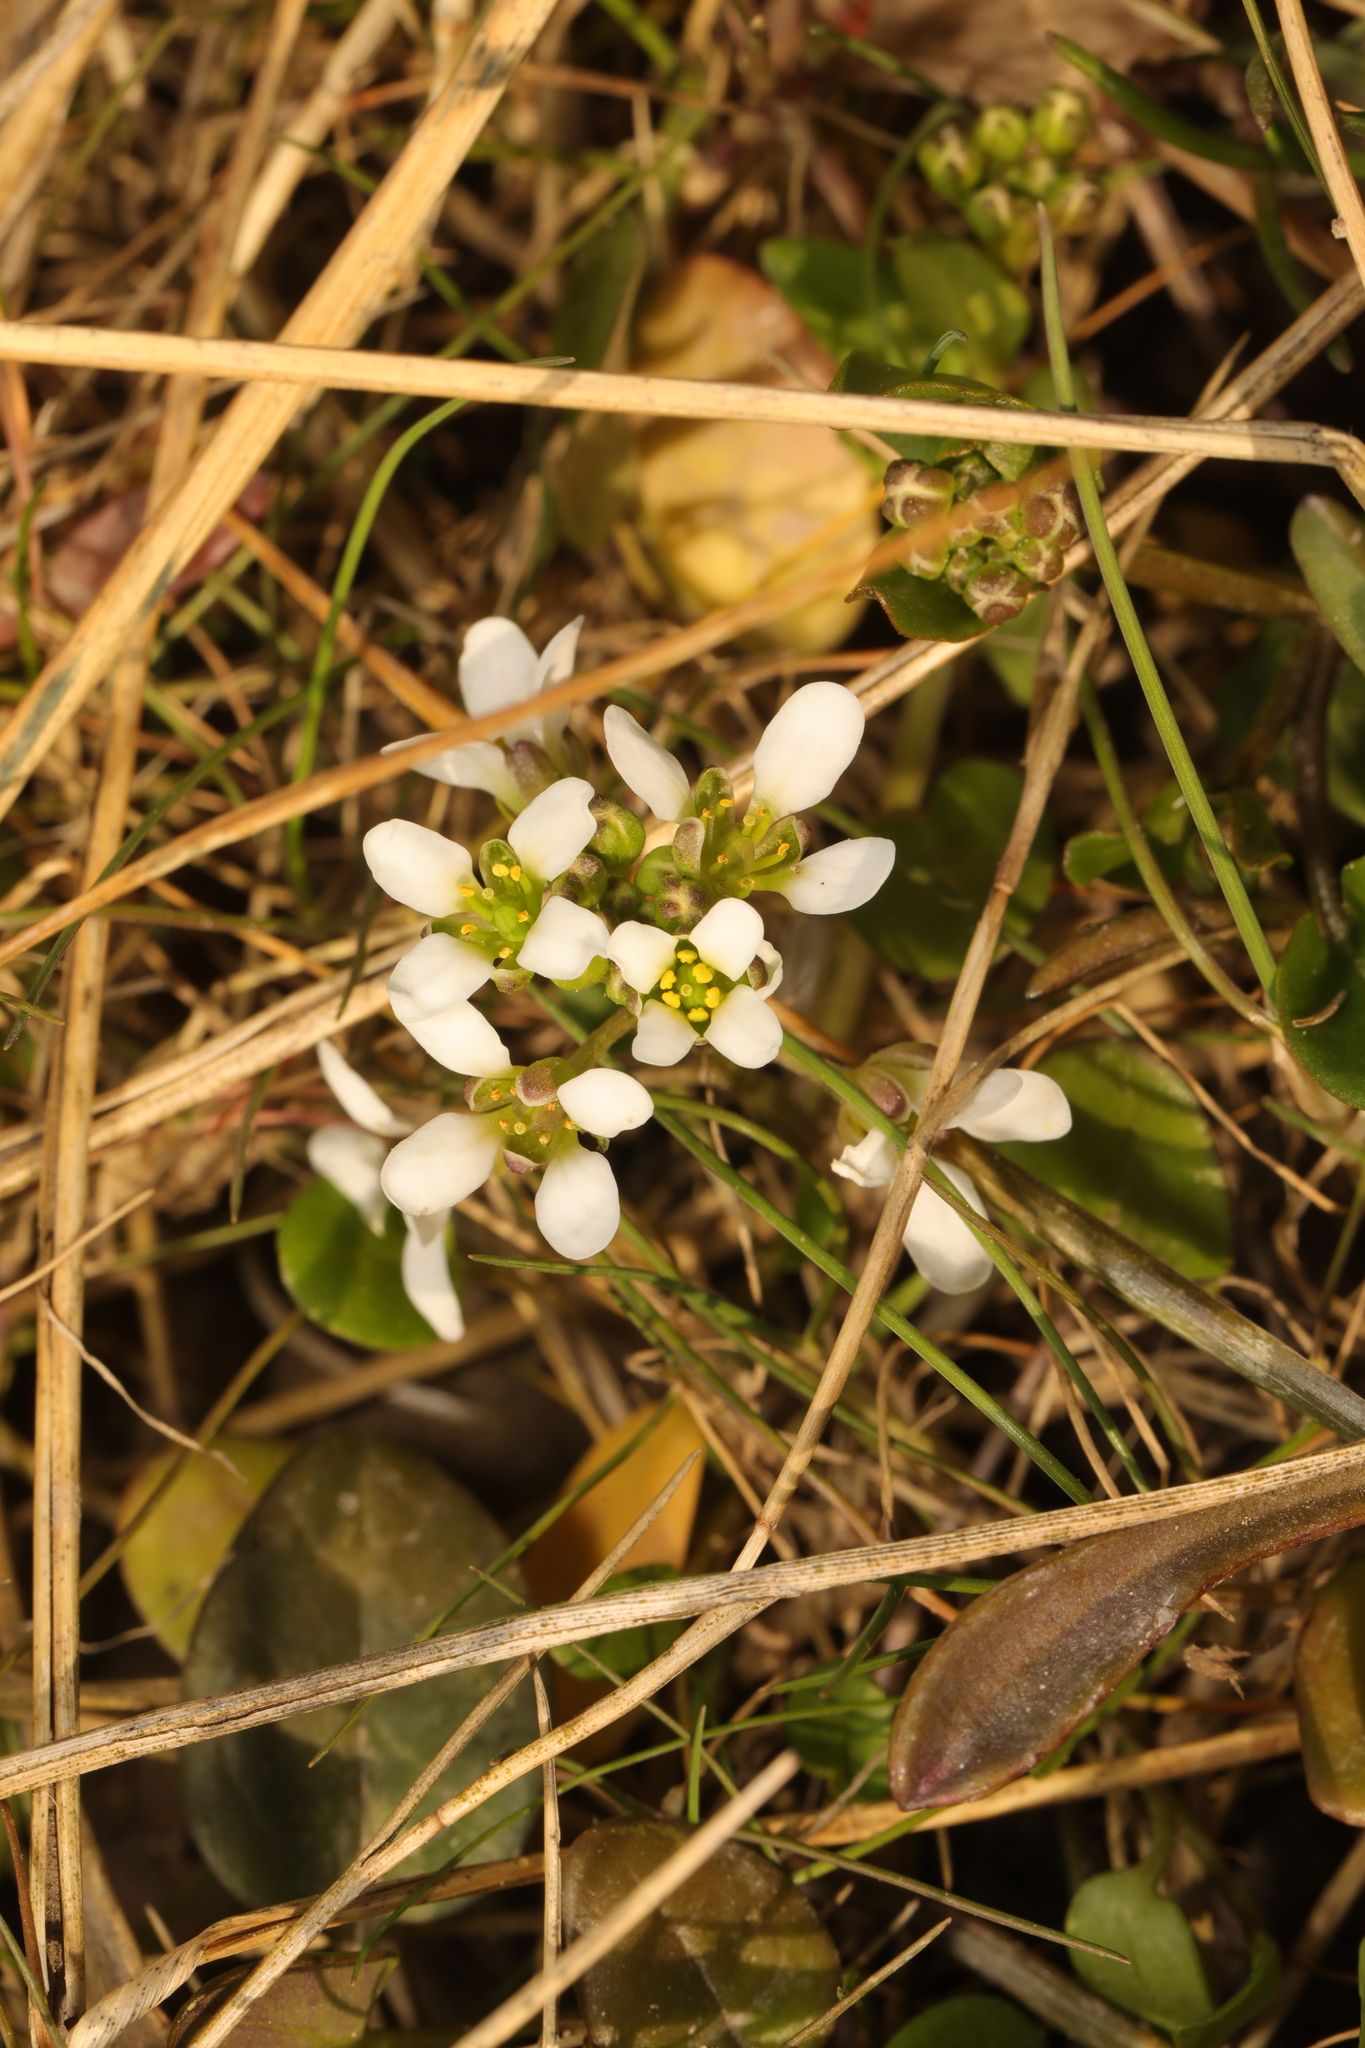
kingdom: Plantae
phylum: Tracheophyta
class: Magnoliopsida
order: Brassicales
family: Brassicaceae
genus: Cochlearia
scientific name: Cochlearia officinalis
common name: Scurvy-grass
